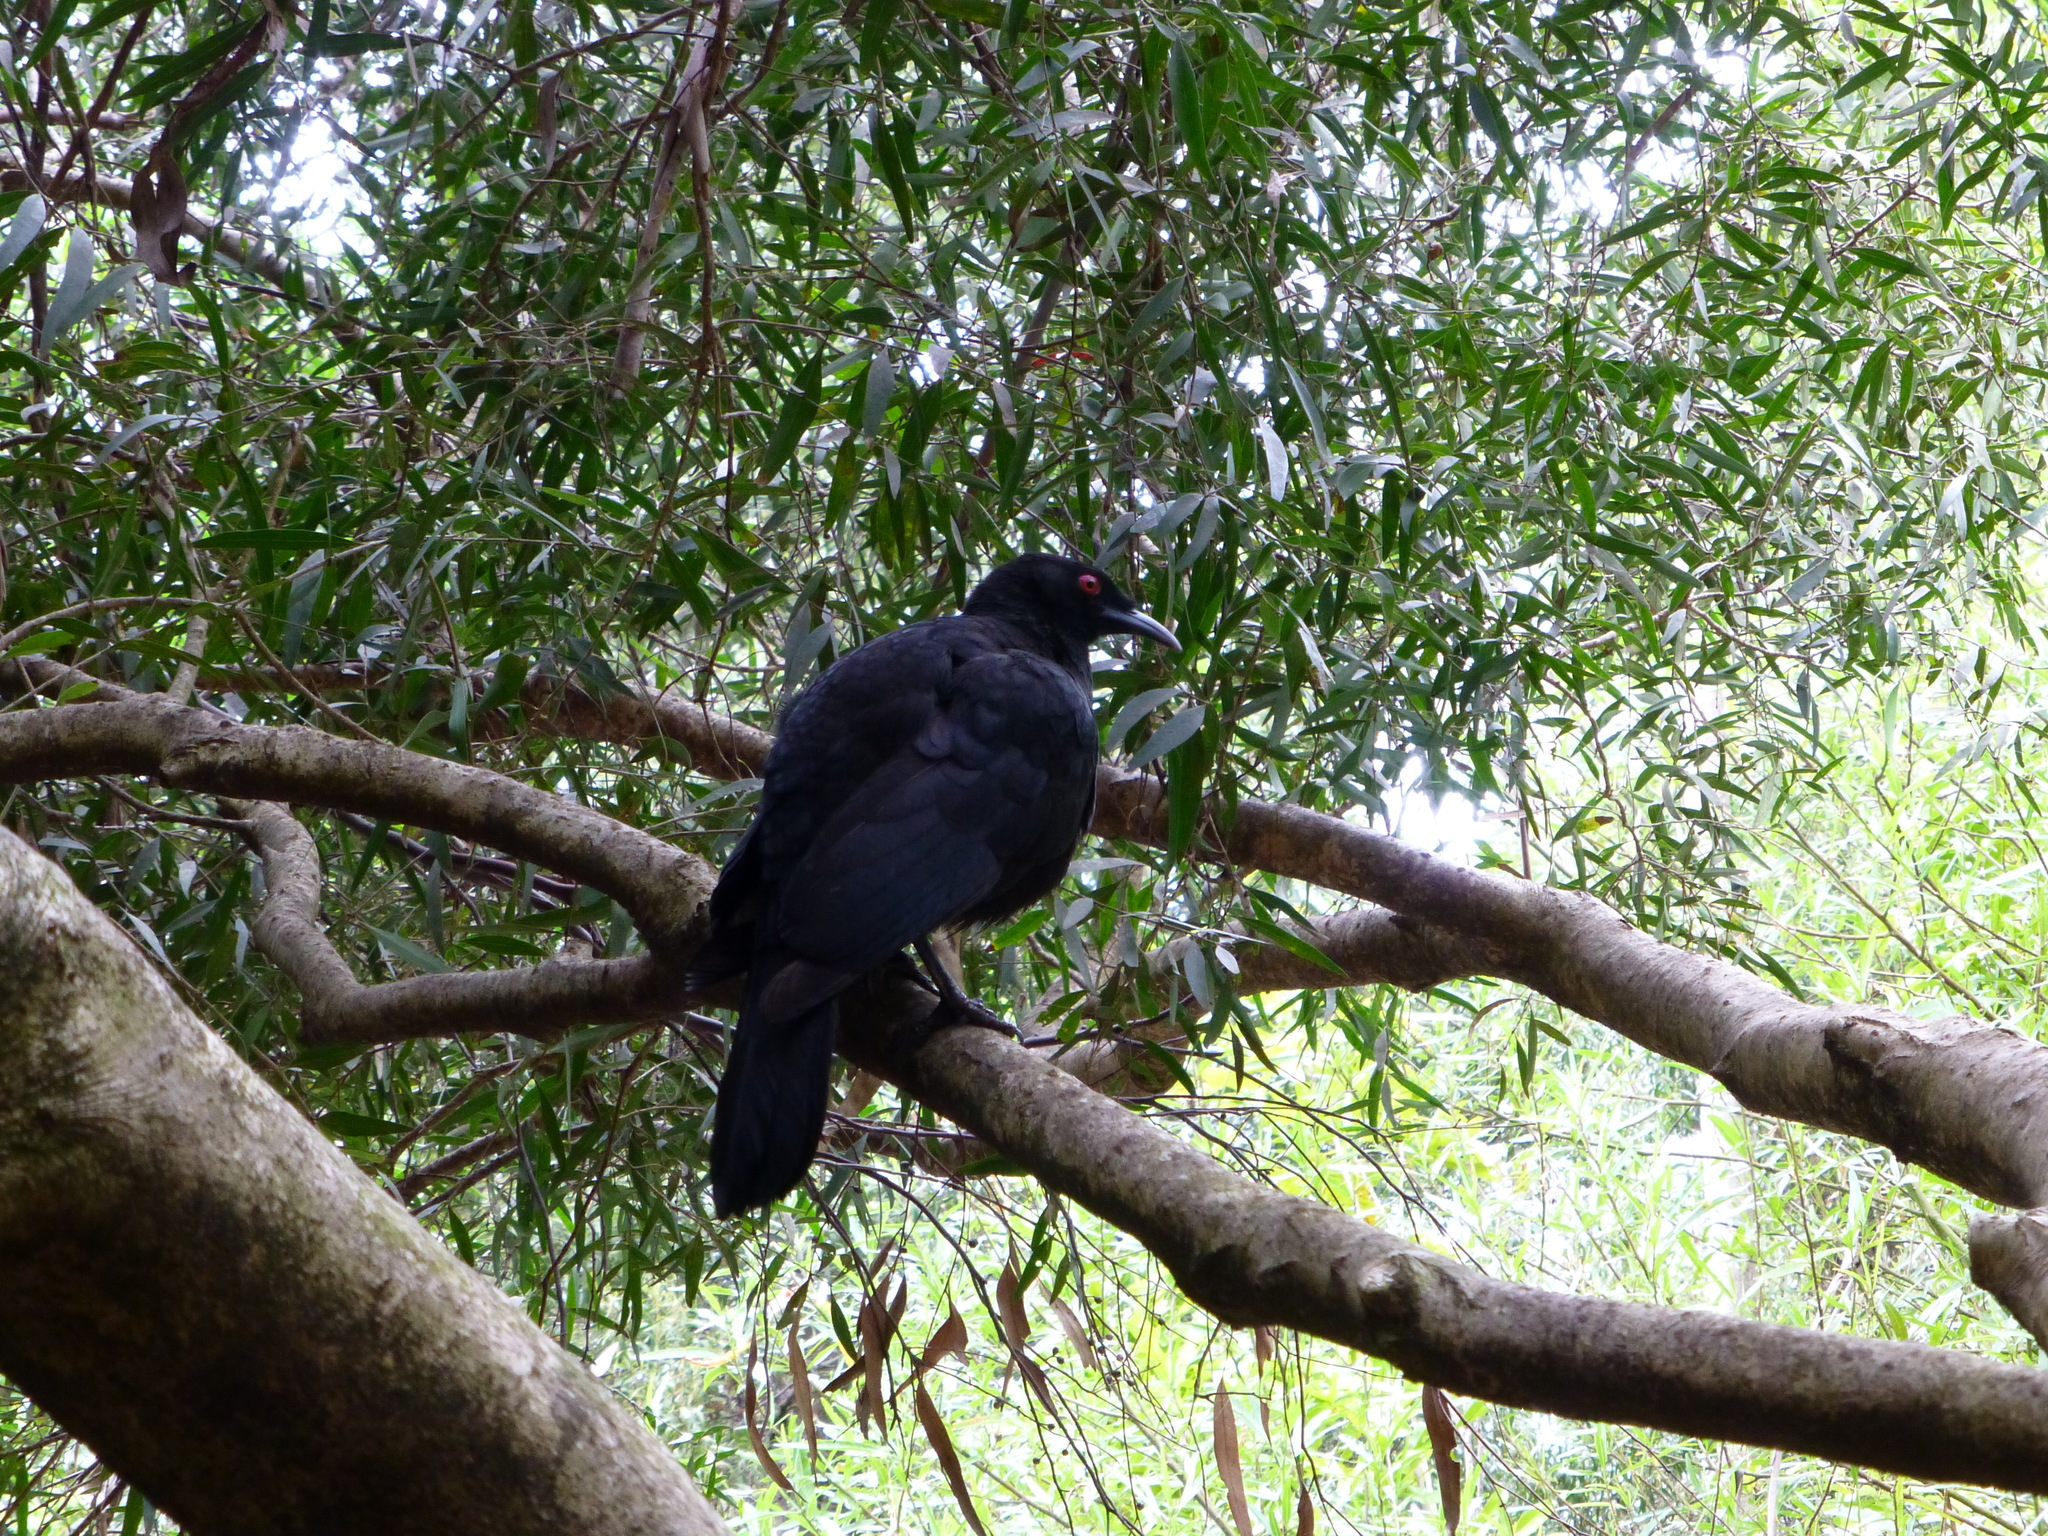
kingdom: Animalia
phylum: Chordata
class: Aves
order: Passeriformes
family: Corcoracidae
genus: Corcorax
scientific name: Corcorax melanoramphos
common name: White-winged chough
